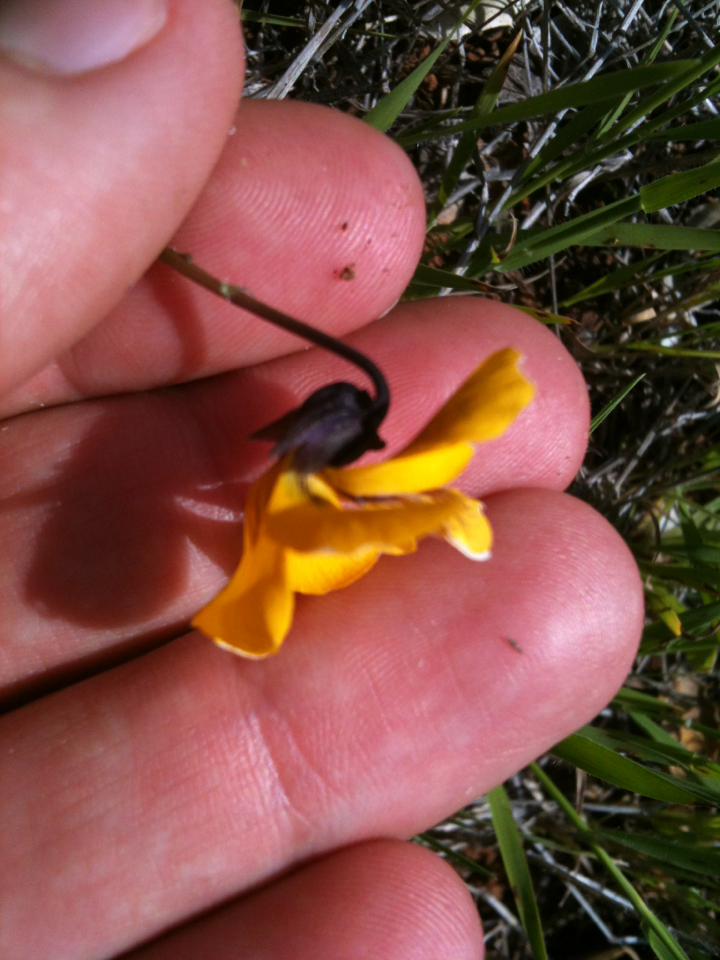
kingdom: Plantae
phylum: Tracheophyta
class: Magnoliopsida
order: Malpighiales
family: Violaceae
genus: Viola
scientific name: Viola pedunculata
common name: California golden violet
